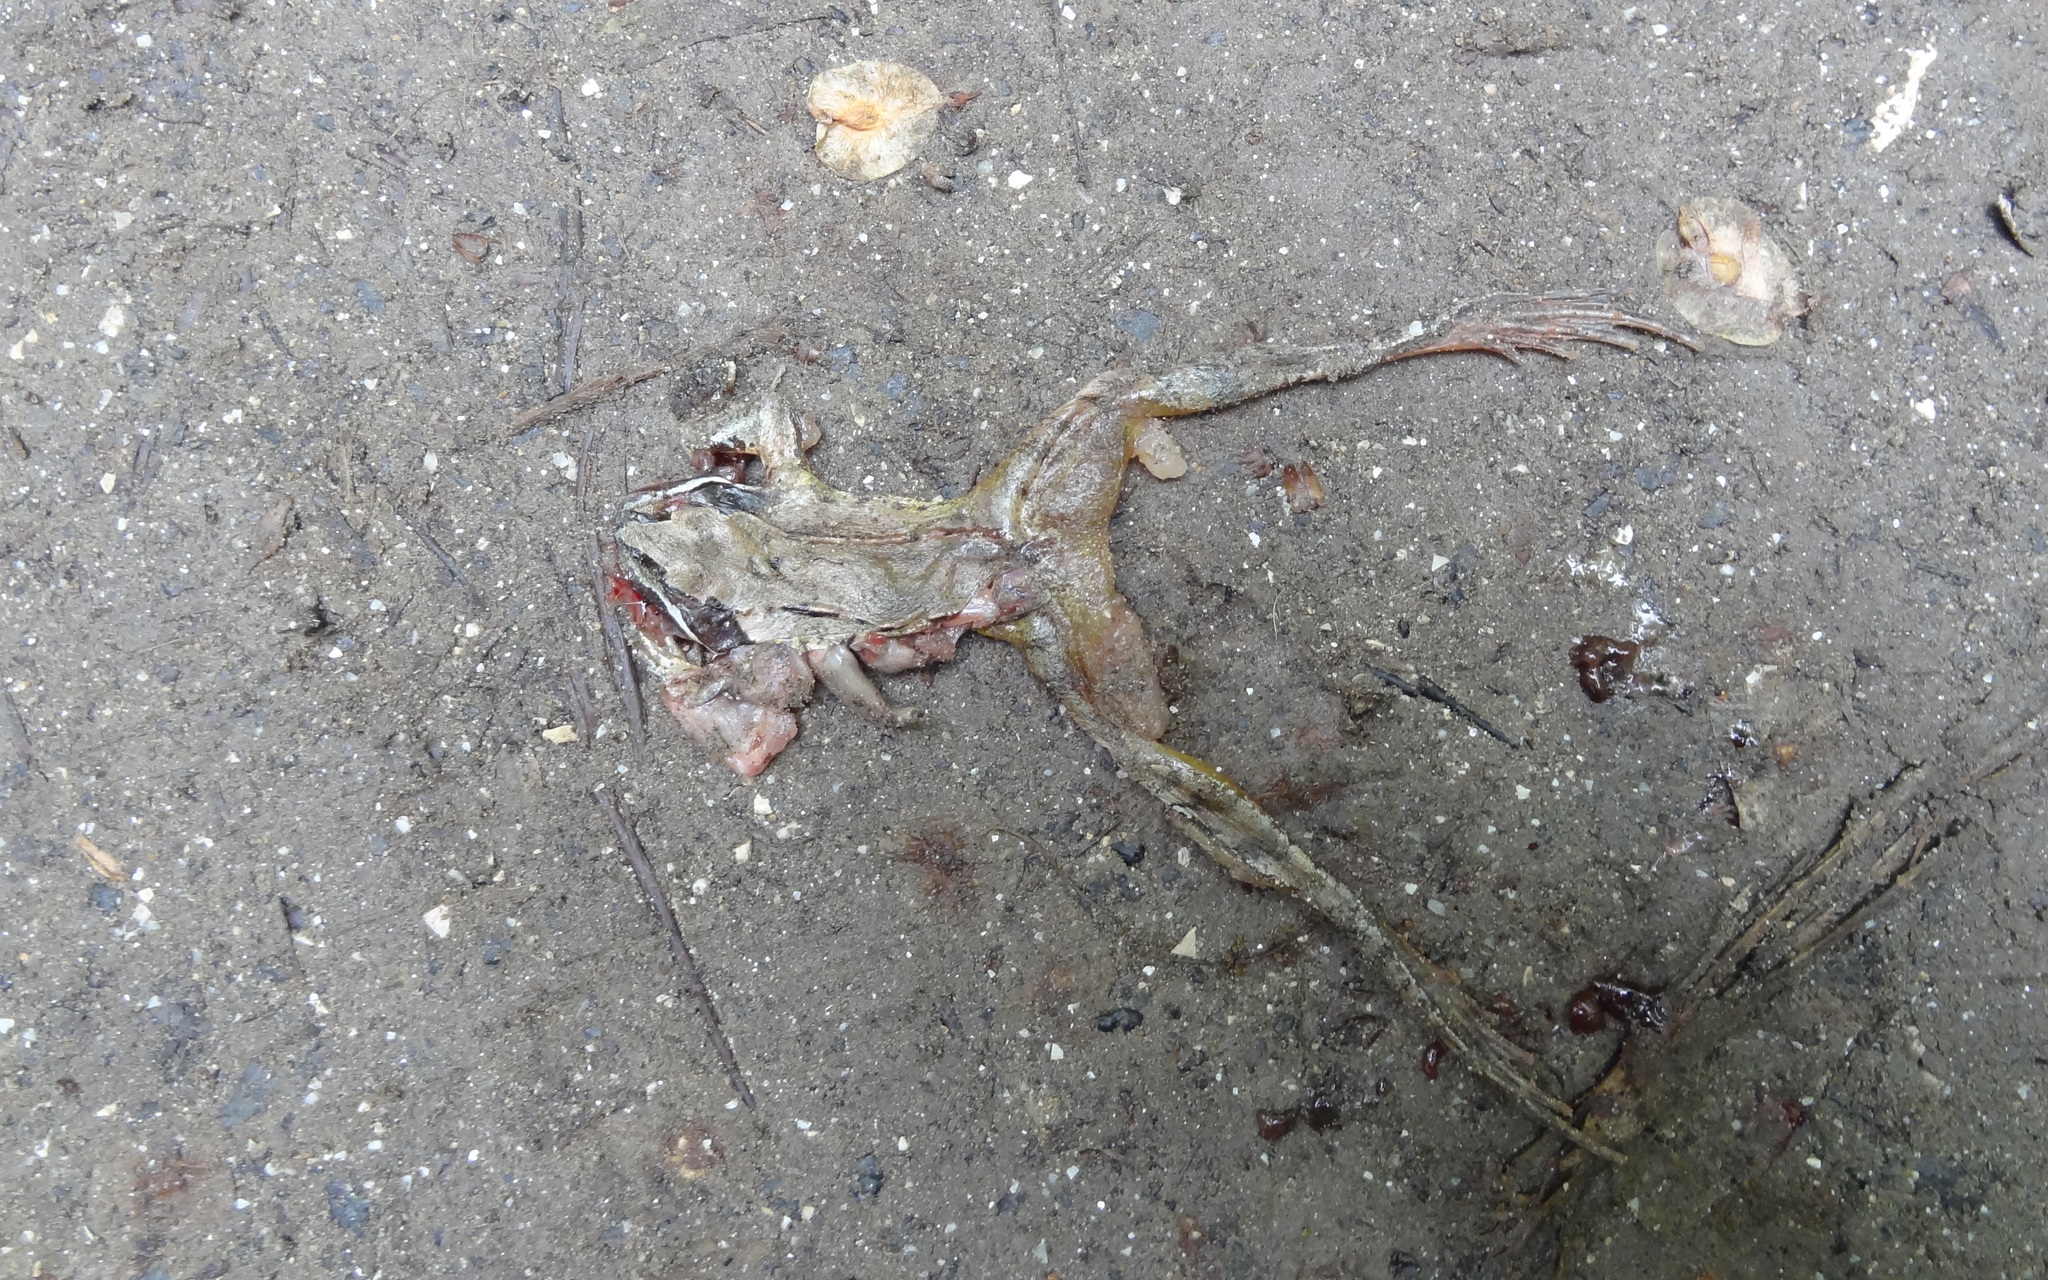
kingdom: Animalia
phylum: Chordata
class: Amphibia
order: Anura
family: Ranidae
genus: Rana
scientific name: Rana dalmatina
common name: Agile frog
